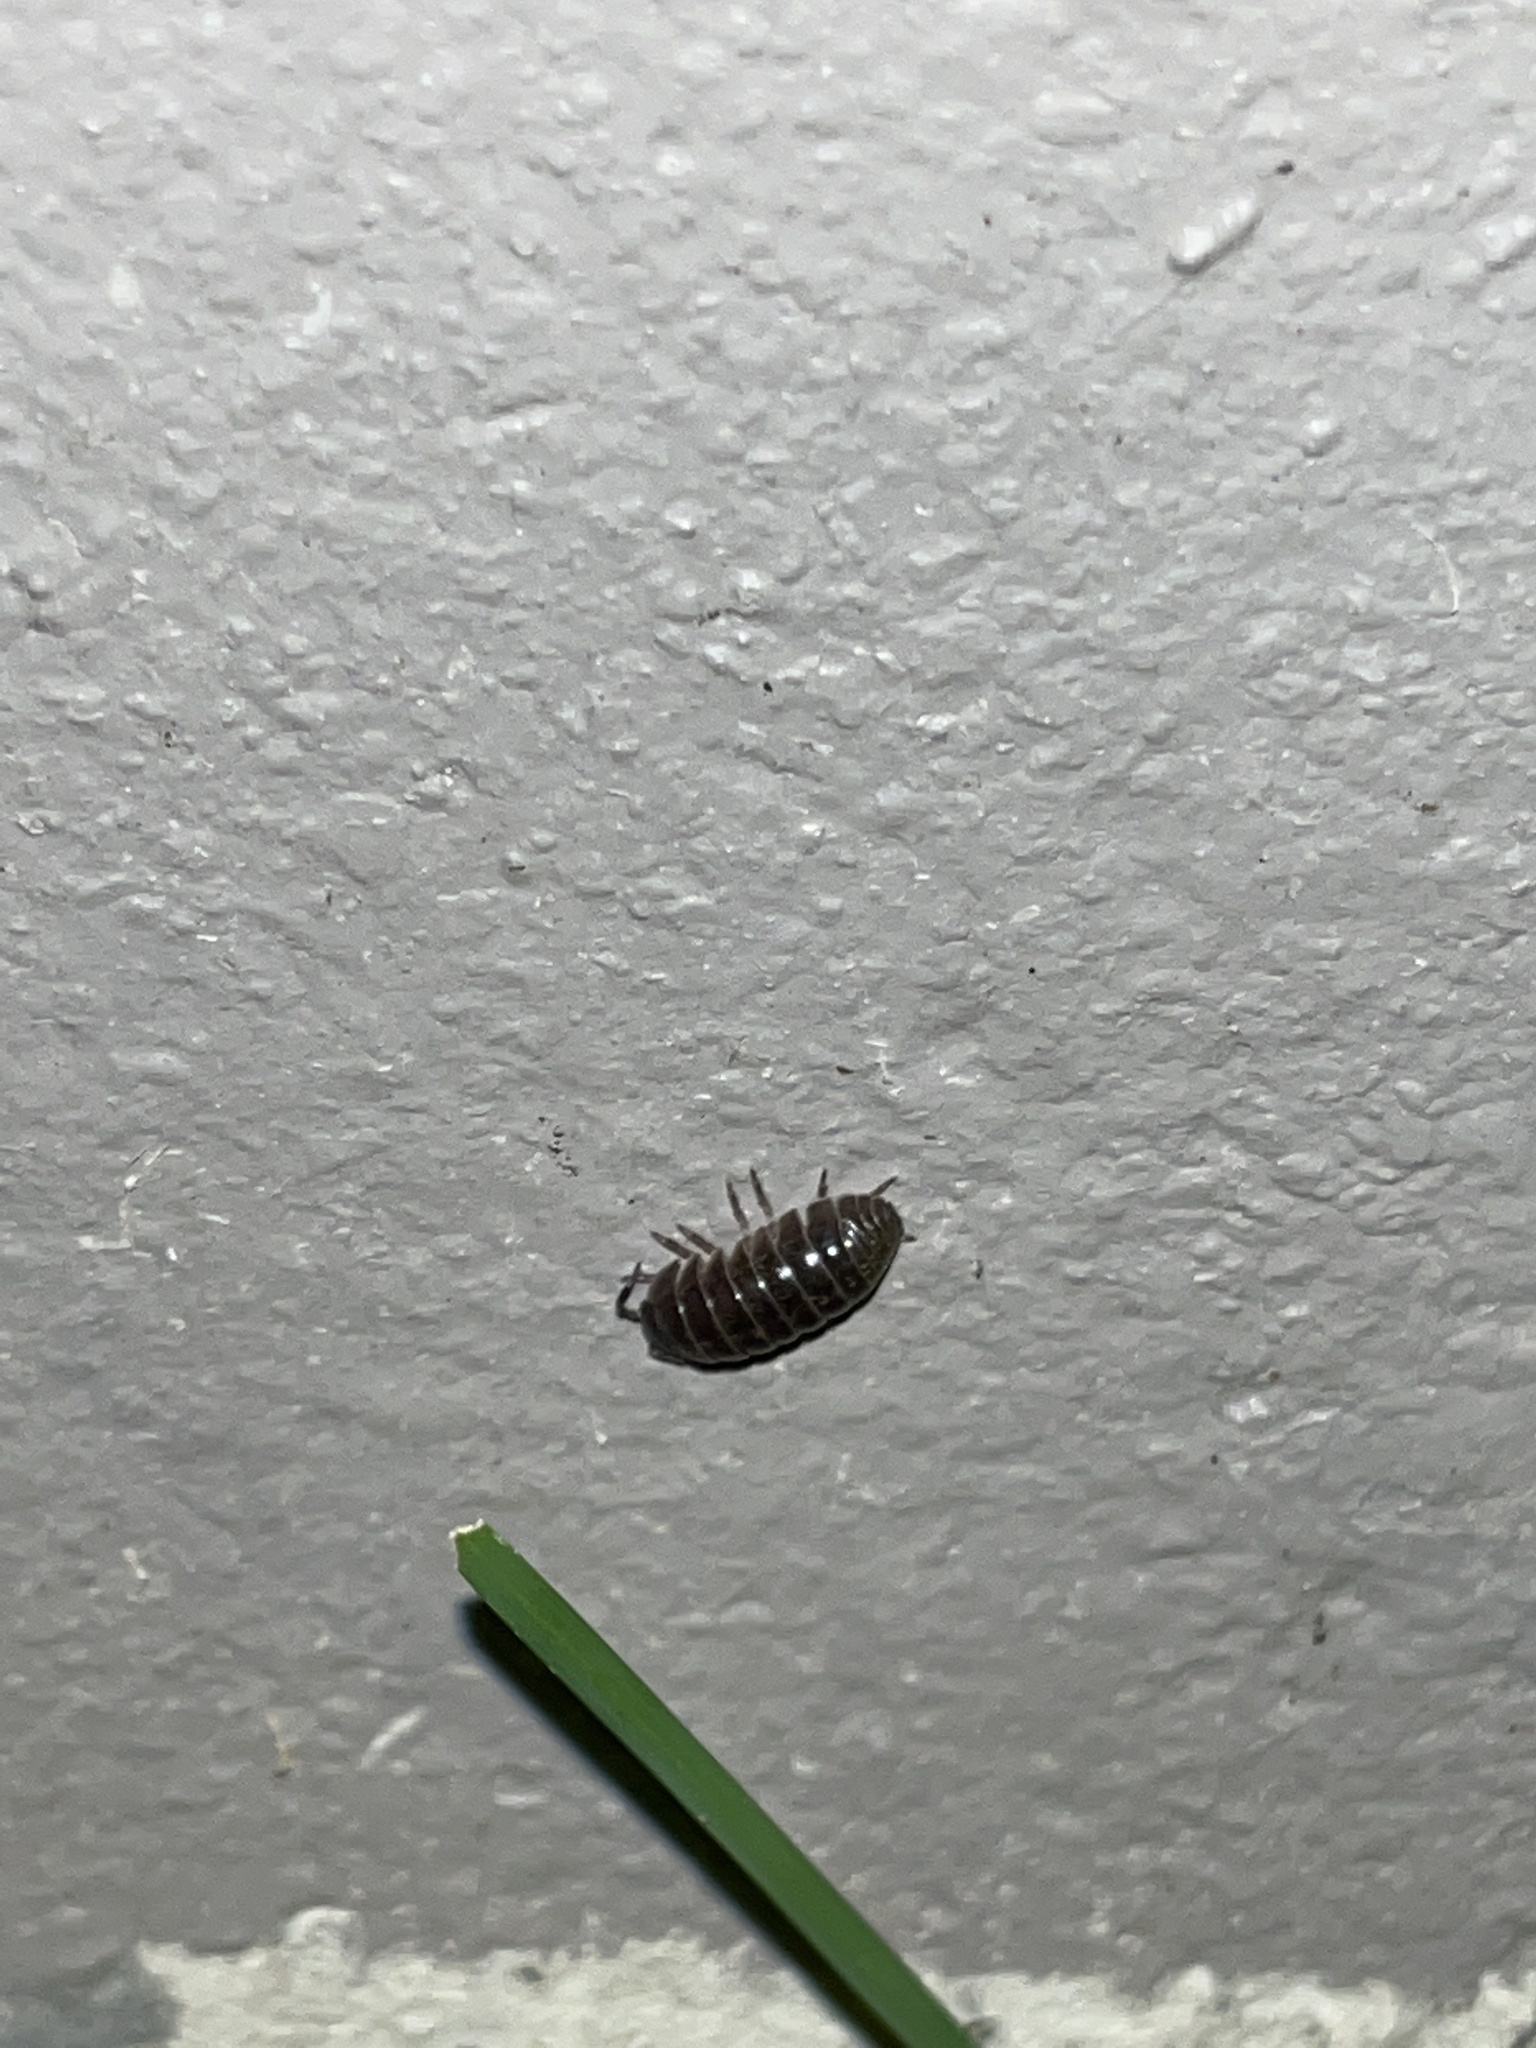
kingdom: Animalia
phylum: Arthropoda
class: Malacostraca
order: Isopoda
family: Armadillidiidae
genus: Armadillidium
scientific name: Armadillidium vulgare
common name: Common pill woodlouse
